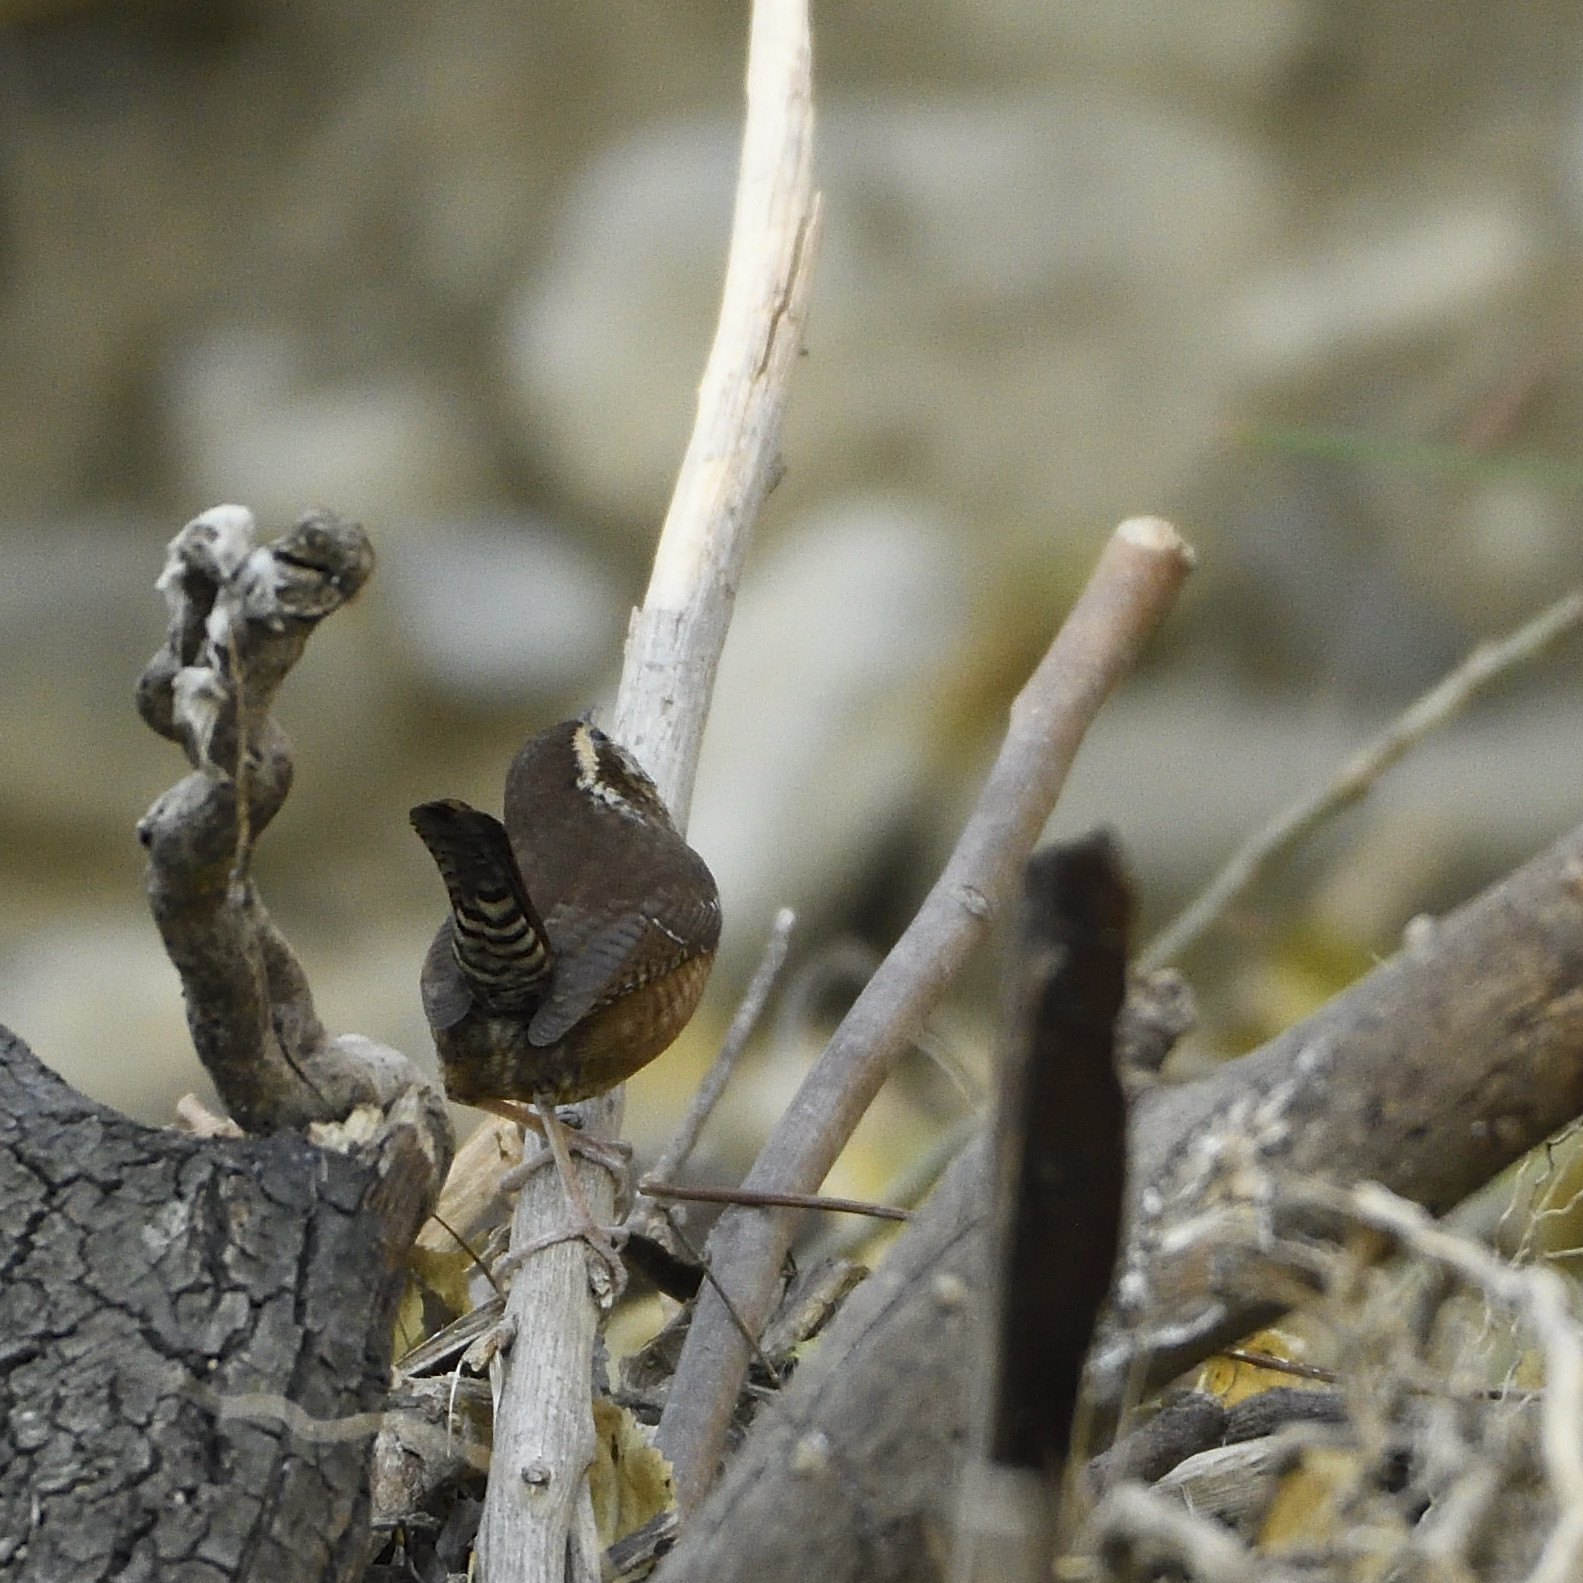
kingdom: Animalia
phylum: Chordata
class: Aves
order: Passeriformes
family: Troglodytidae
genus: Thryothorus
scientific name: Thryothorus ludovicianus
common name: Carolina wren
